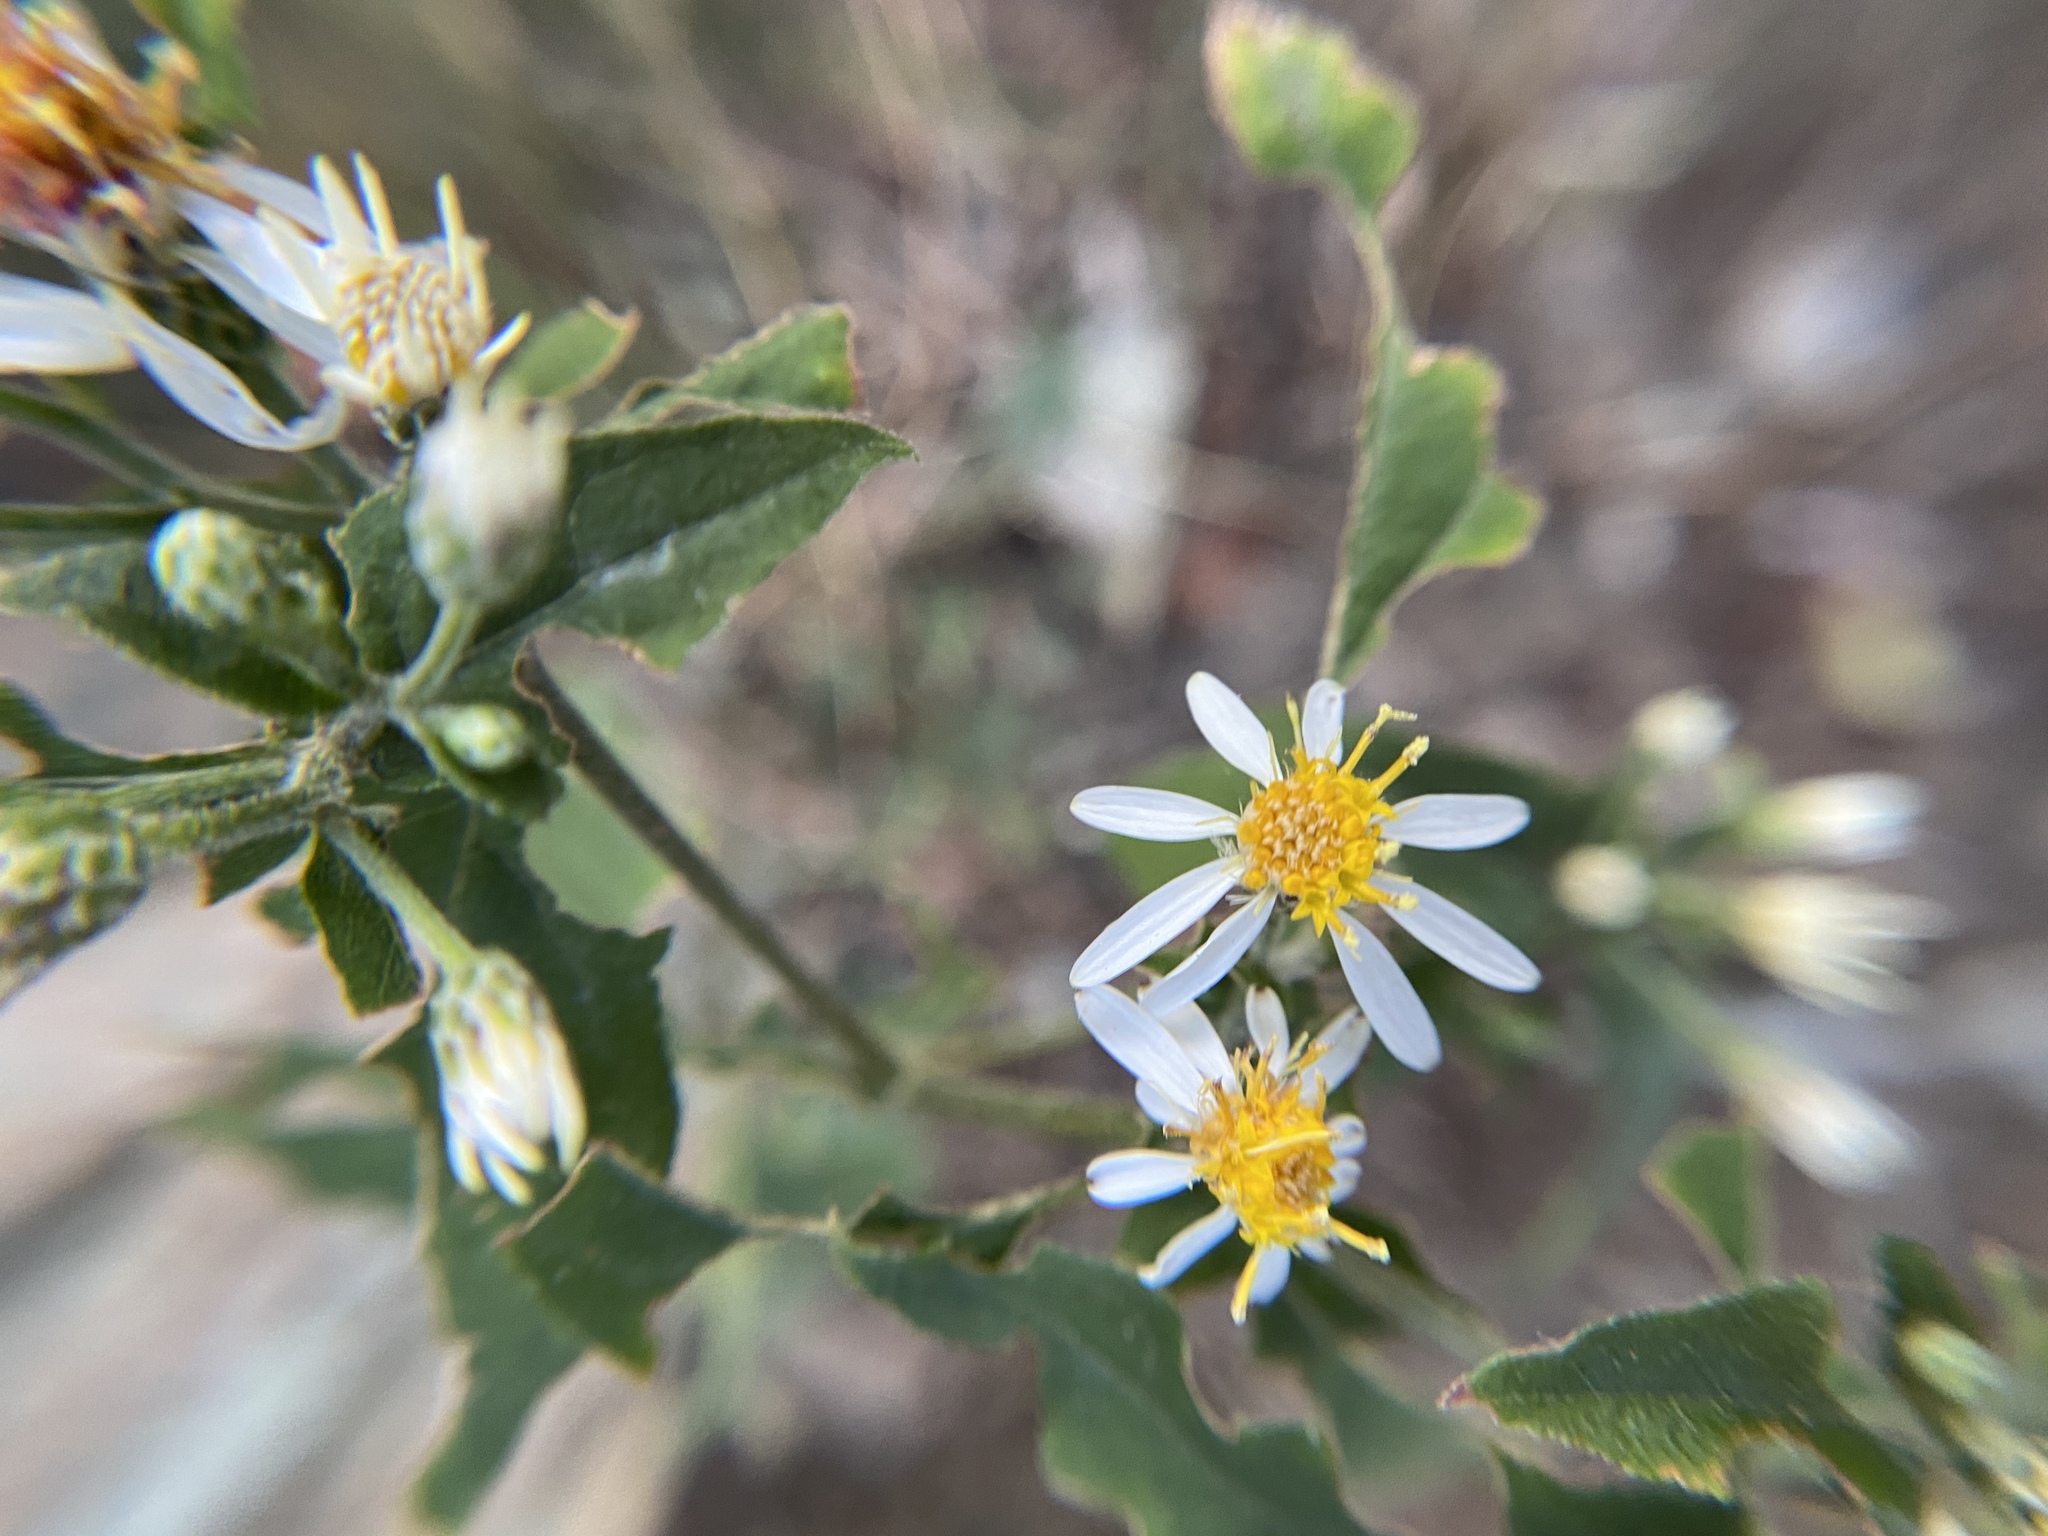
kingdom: Plantae
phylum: Tracheophyta
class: Magnoliopsida
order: Asterales
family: Asteraceae
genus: Eurybia
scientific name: Eurybia divaricata
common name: White wood aster
